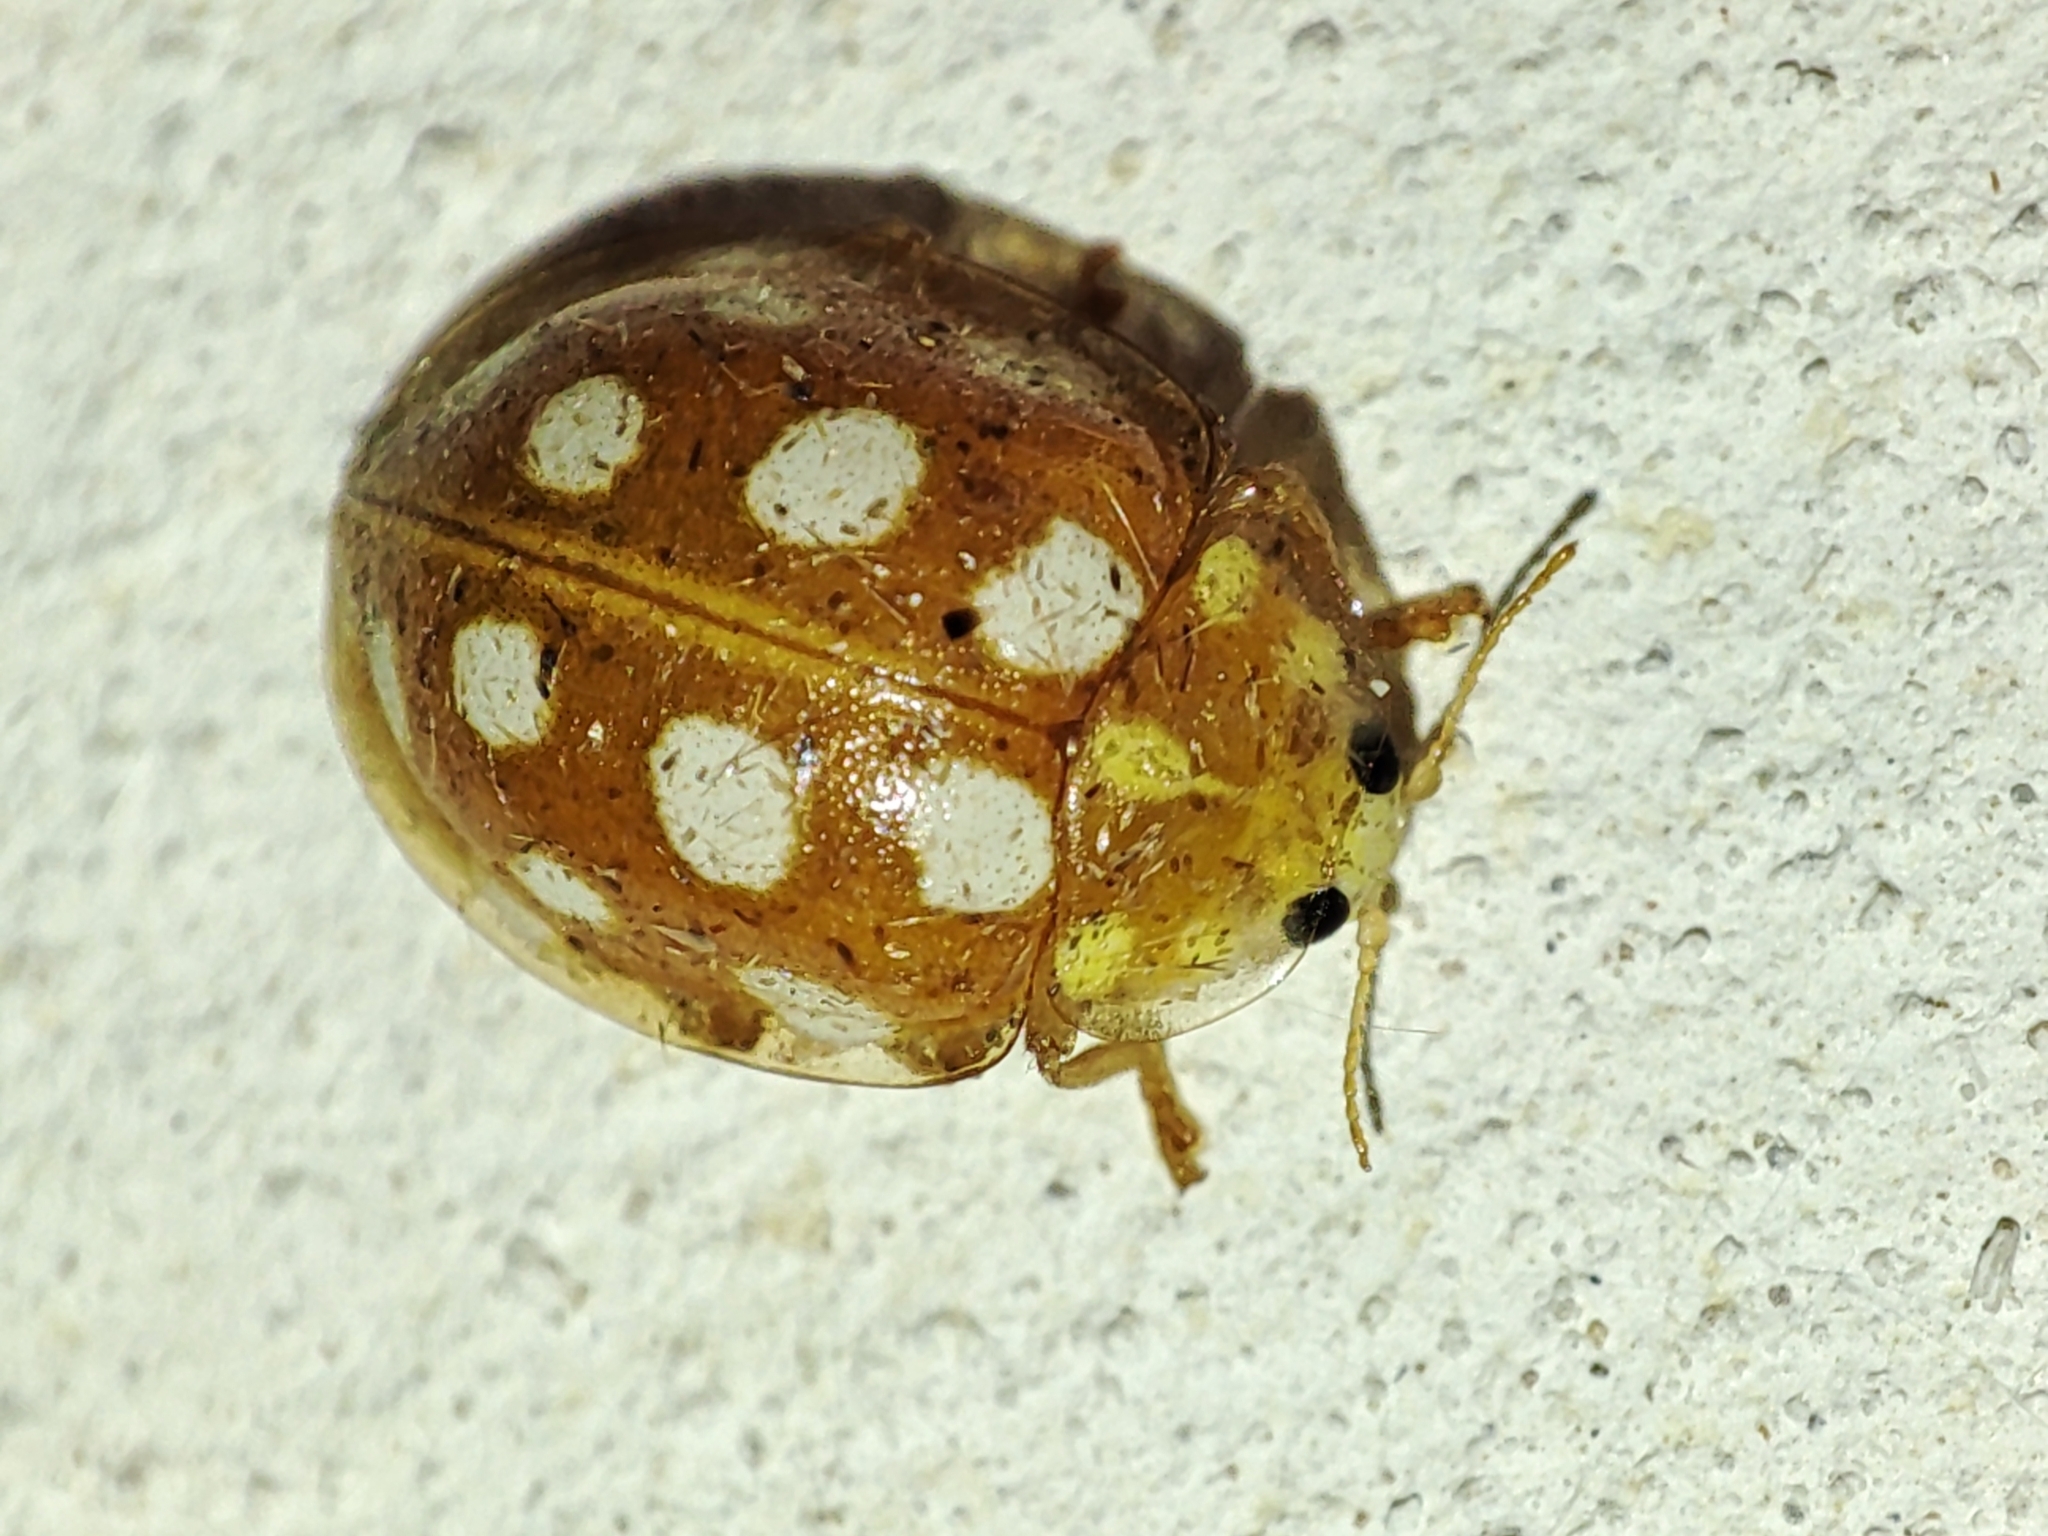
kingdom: Animalia
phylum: Arthropoda
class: Insecta
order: Coleoptera
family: Coccinellidae
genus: Halyzia
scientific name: Halyzia sedecimguttata
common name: Orange ladybird
